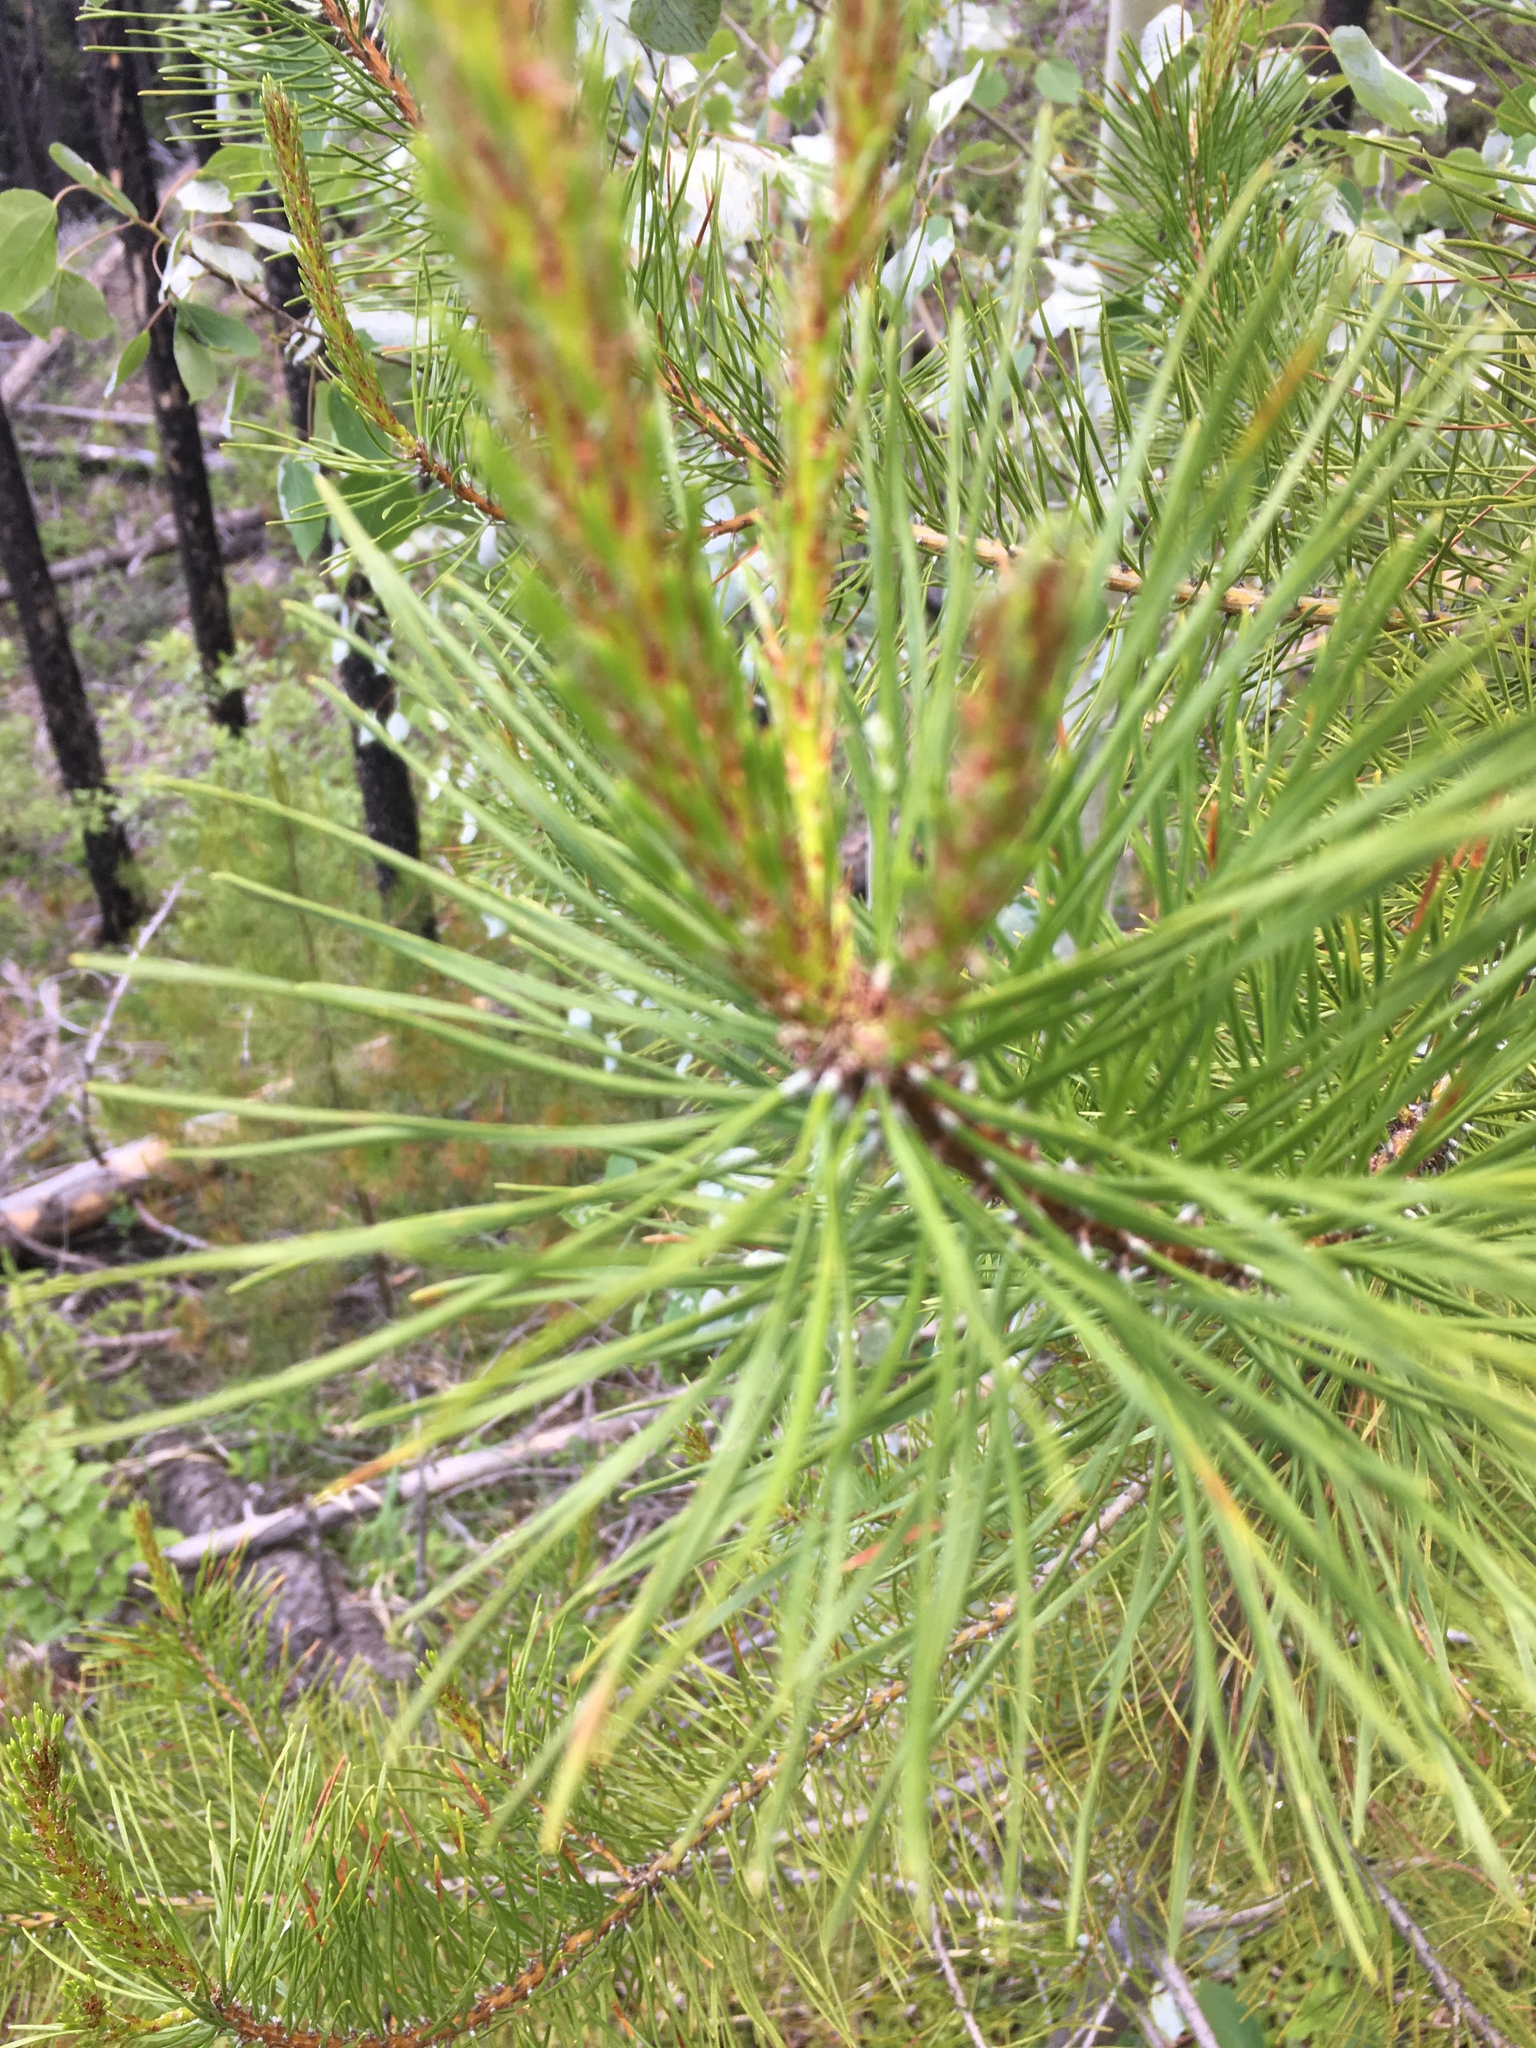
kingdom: Plantae
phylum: Tracheophyta
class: Pinopsida
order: Pinales
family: Pinaceae
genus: Pinus
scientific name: Pinus contorta
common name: Lodgepole pine
